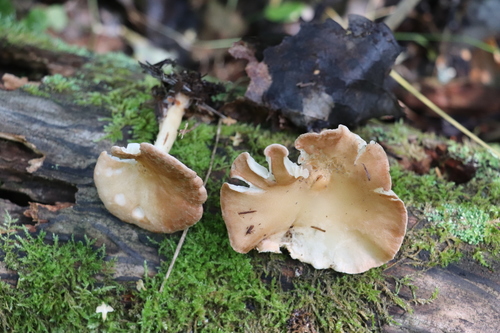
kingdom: Fungi
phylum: Basidiomycota
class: Agaricomycetes
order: Agaricales
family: Tricholomataceae
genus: Infundibulicybe
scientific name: Infundibulicybe gibba
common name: Common funnel
